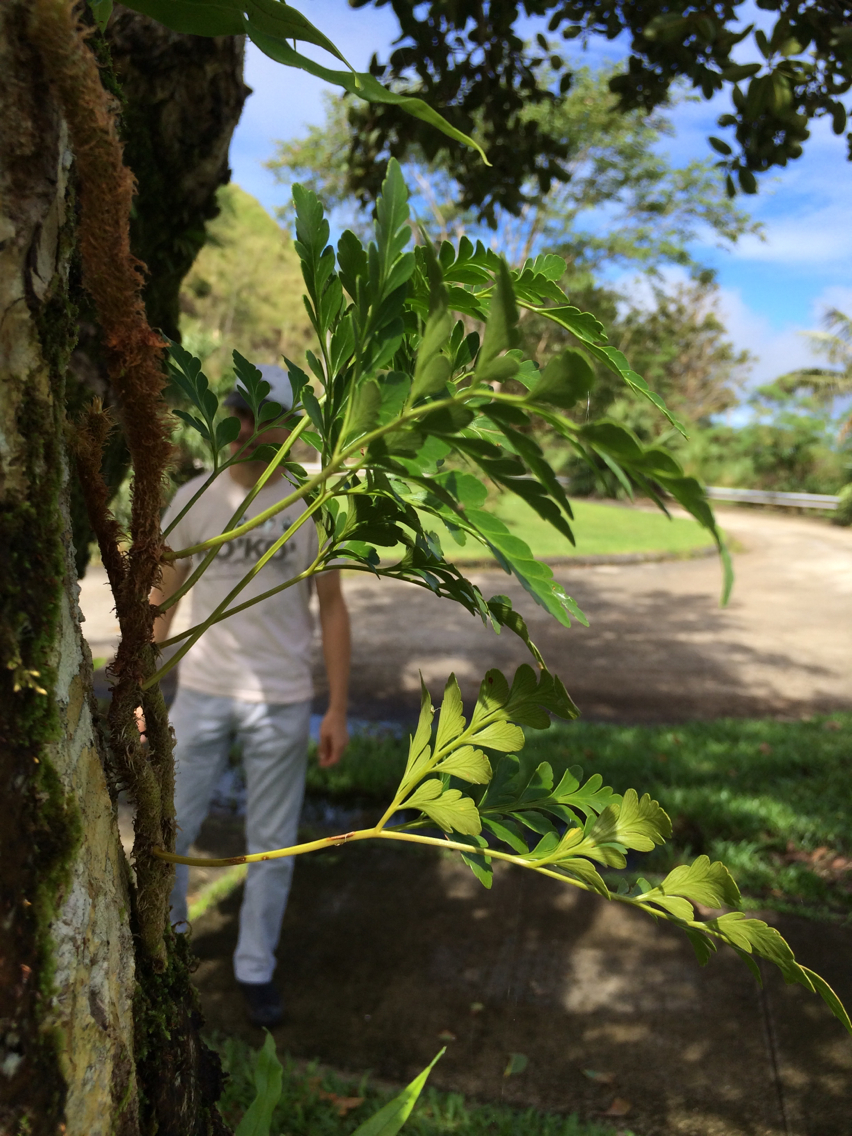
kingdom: Plantae
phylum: Tracheophyta
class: Polypodiopsida
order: Polypodiales
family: Davalliaceae
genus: Davallia
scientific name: Davallia solida
